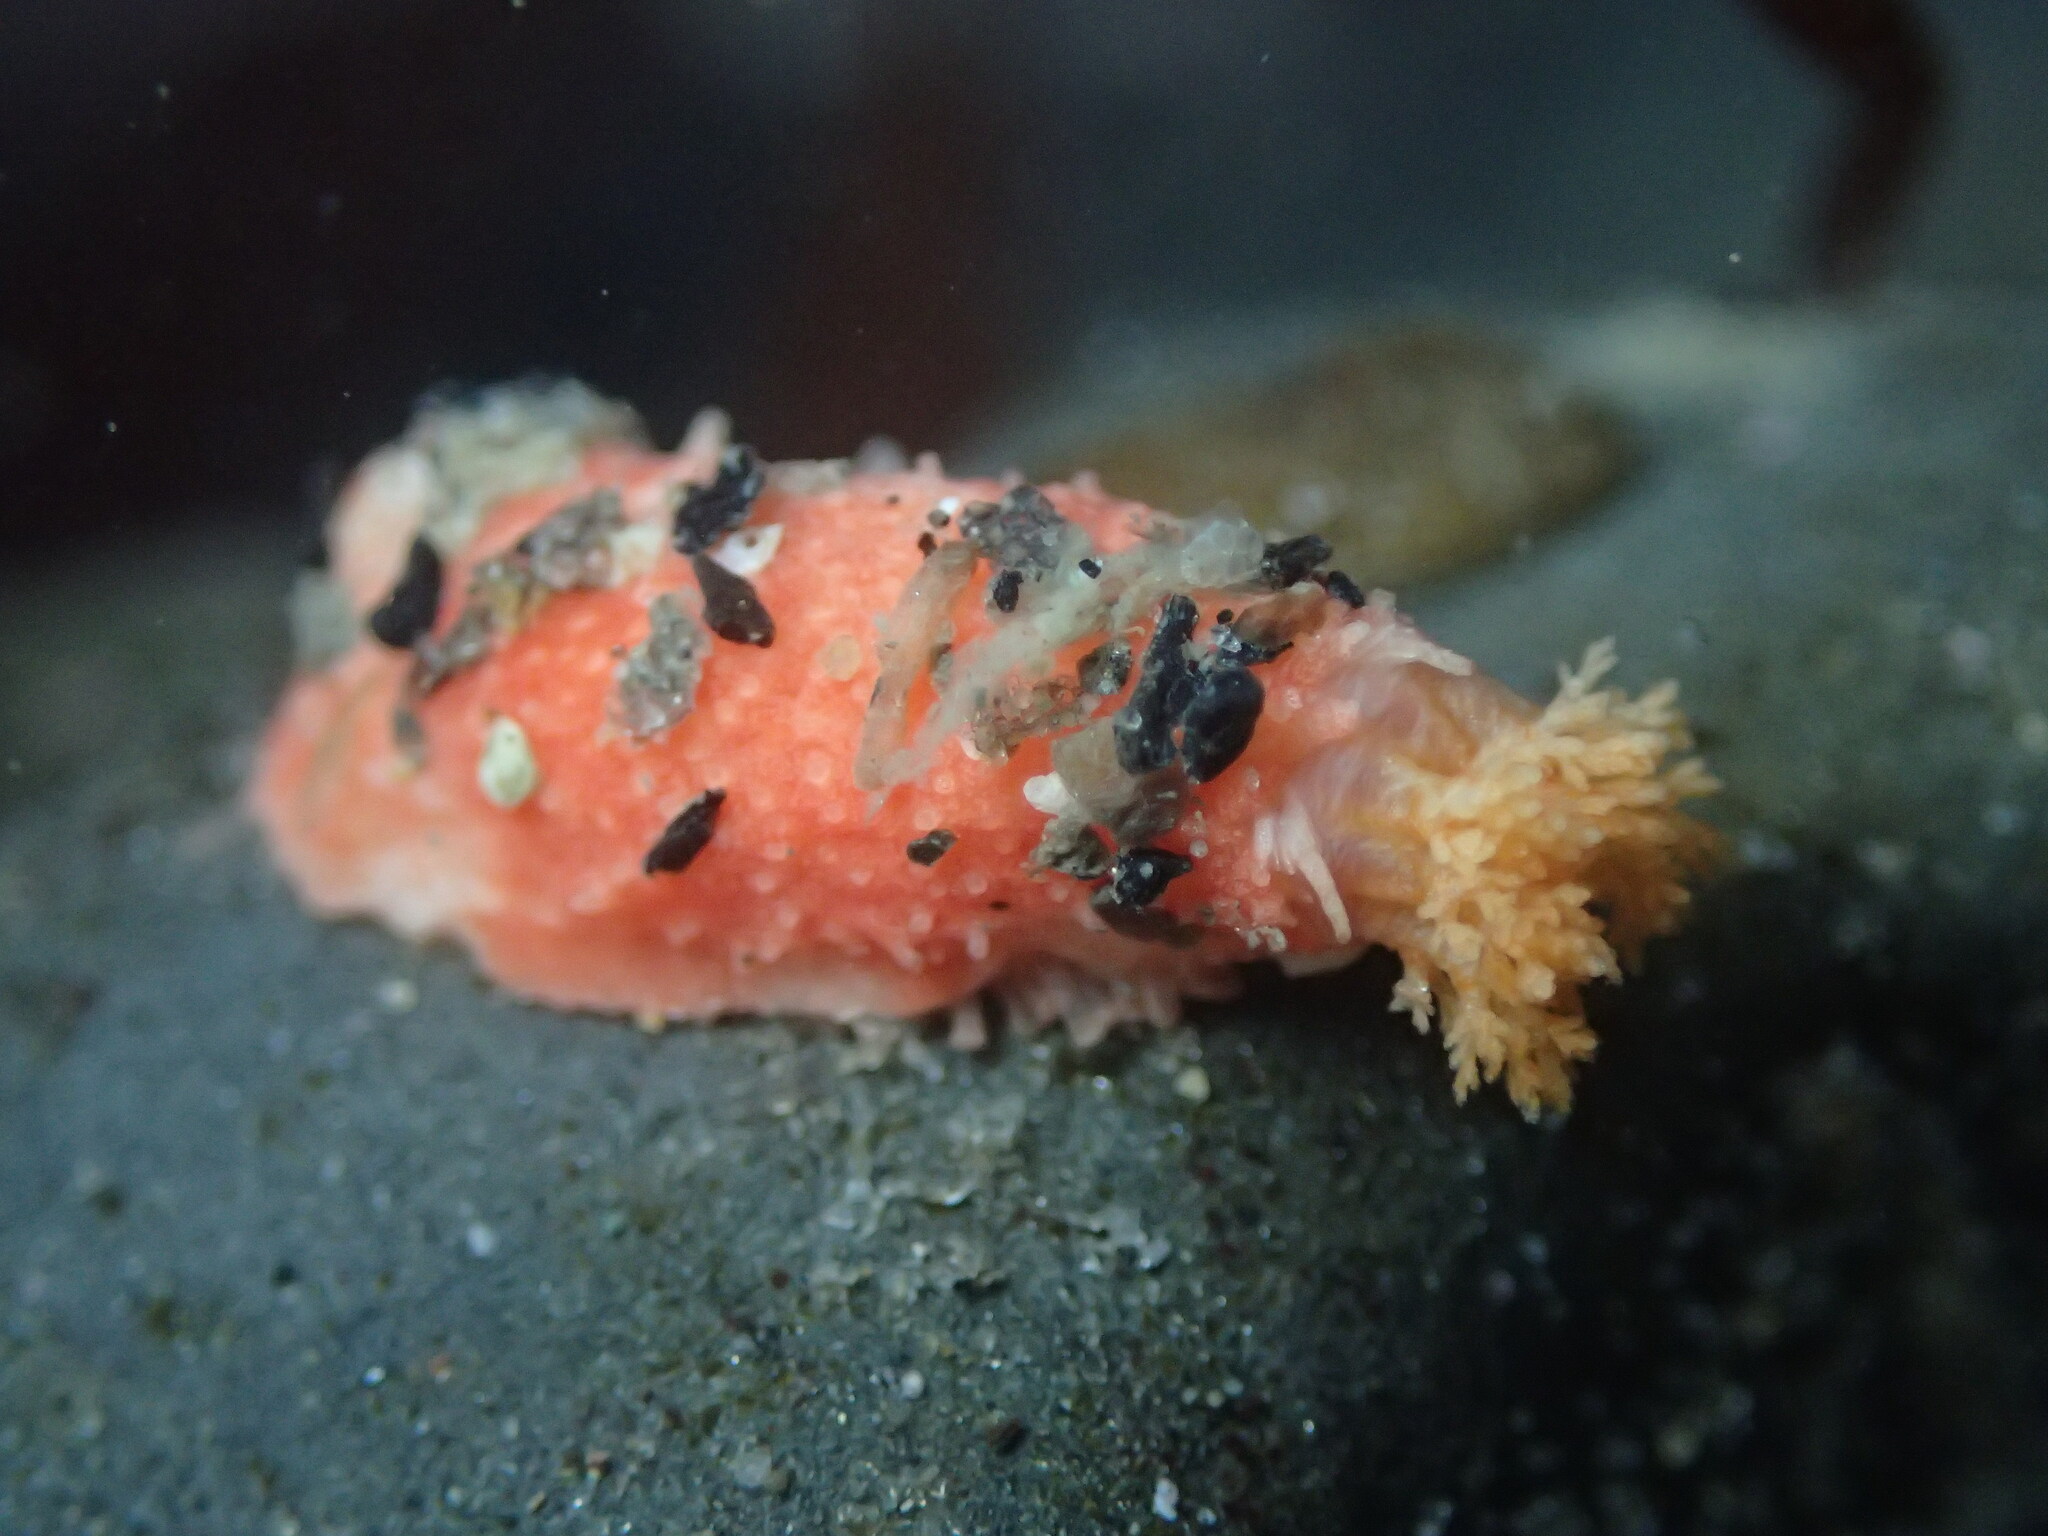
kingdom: Animalia
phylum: Echinodermata
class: Holothuroidea
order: Dendrochirotida
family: Psolidae
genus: Lissothuria
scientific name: Lissothuria nutriens
